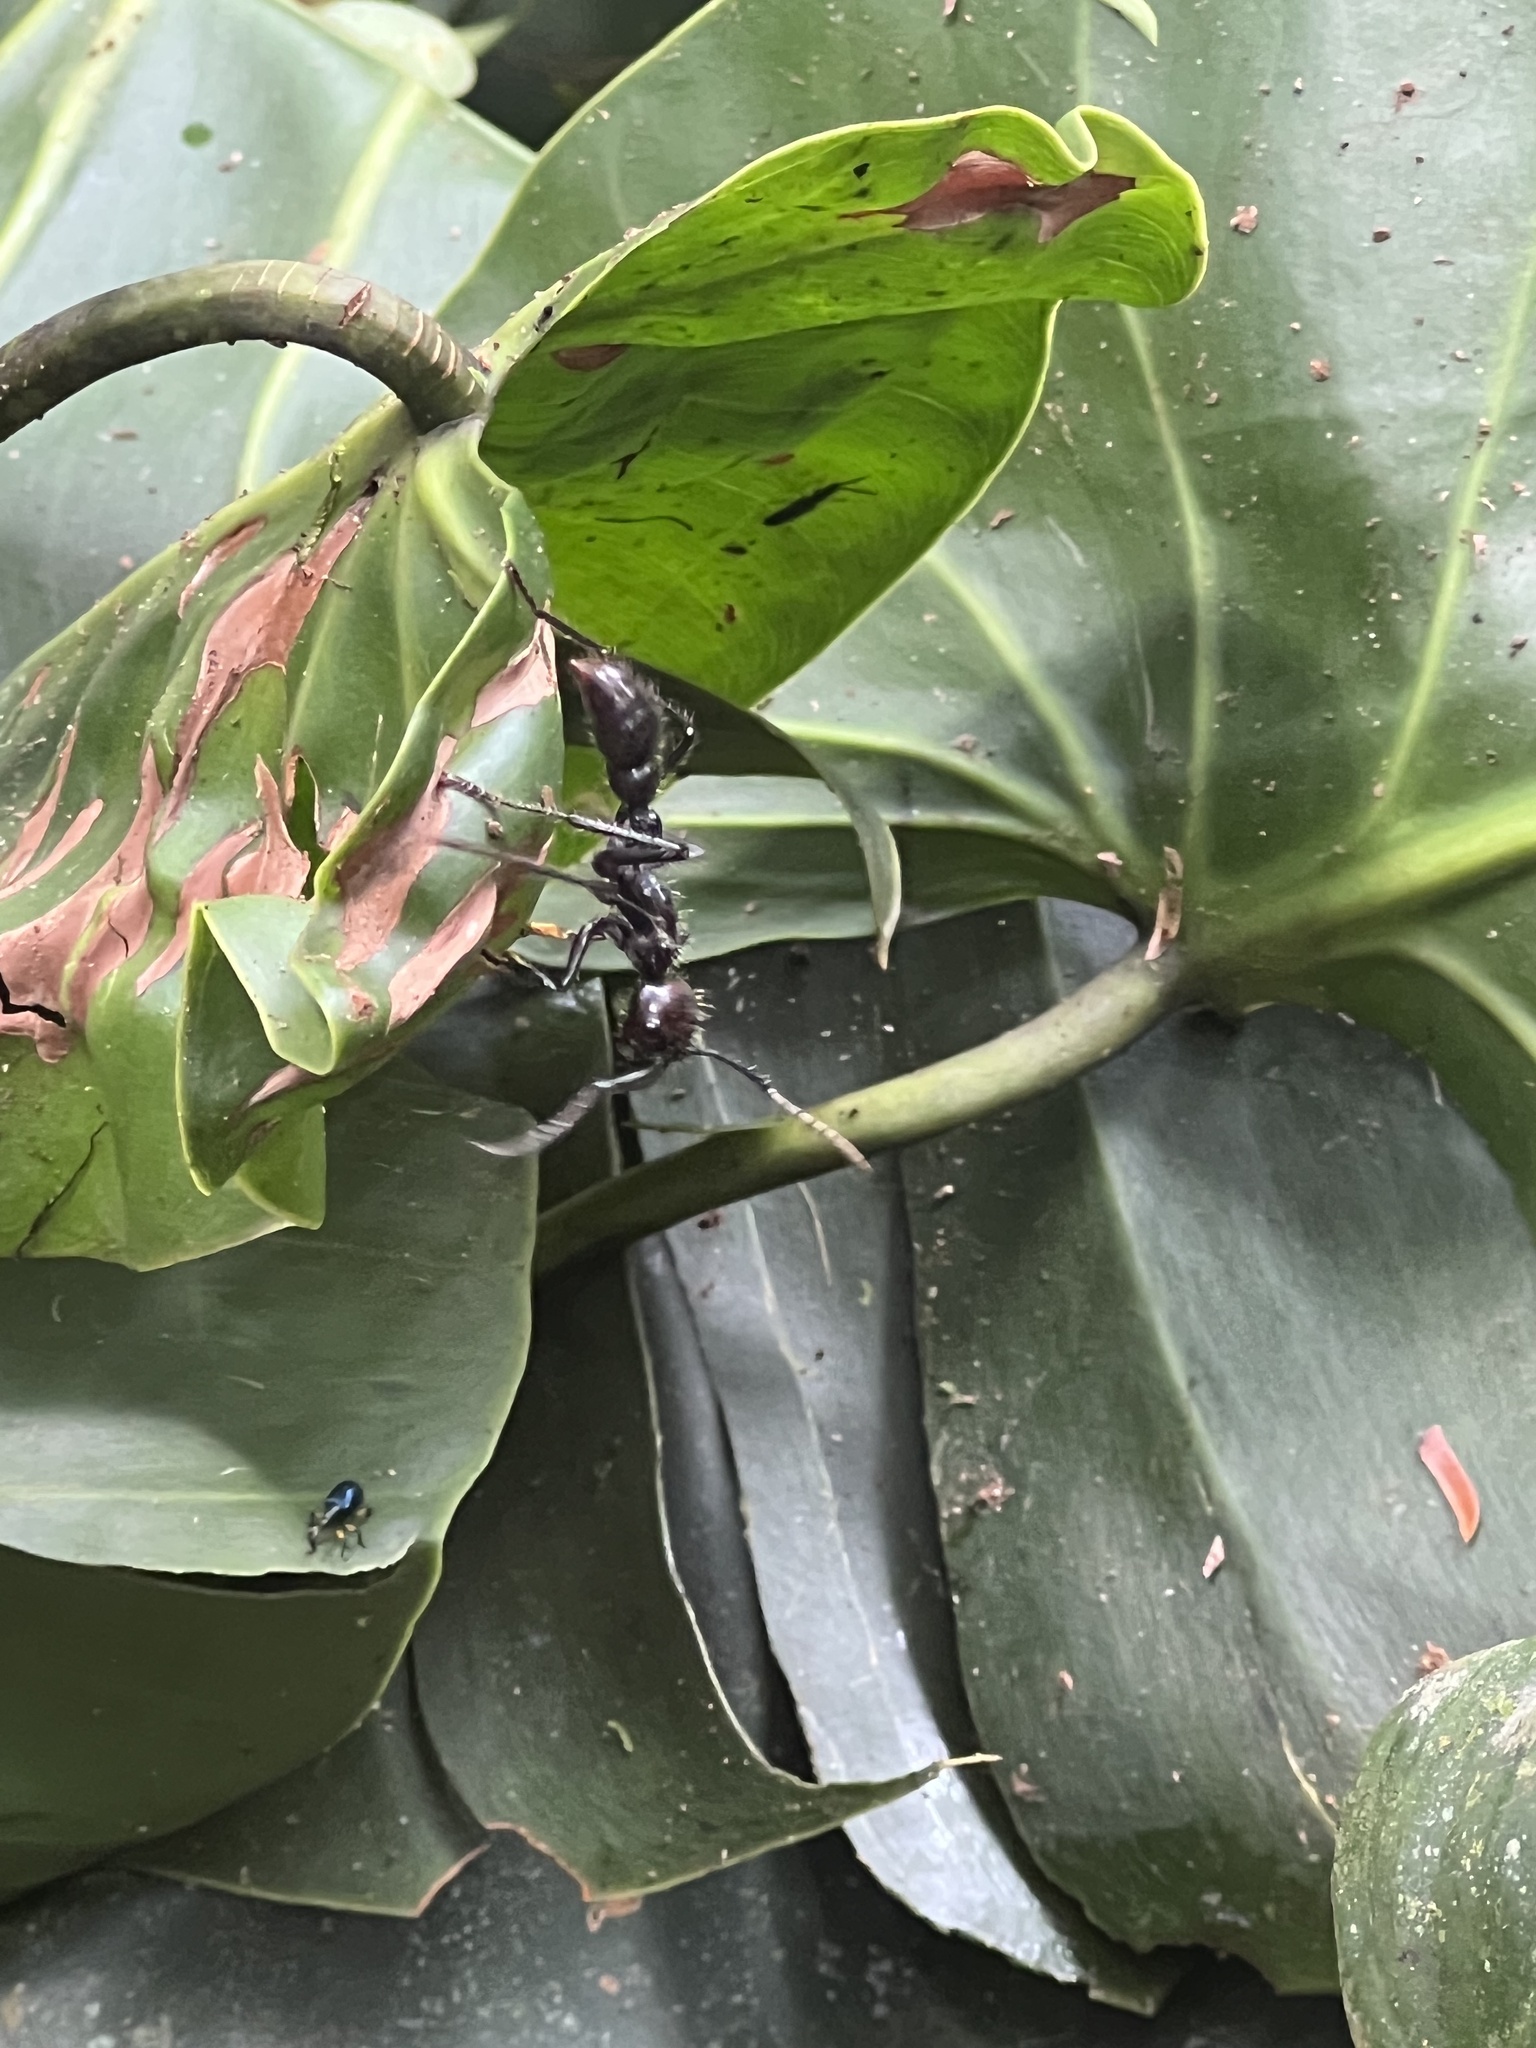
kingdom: Animalia
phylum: Arthropoda
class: Insecta
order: Hymenoptera
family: Formicidae
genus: Paraponera
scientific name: Paraponera clavata
